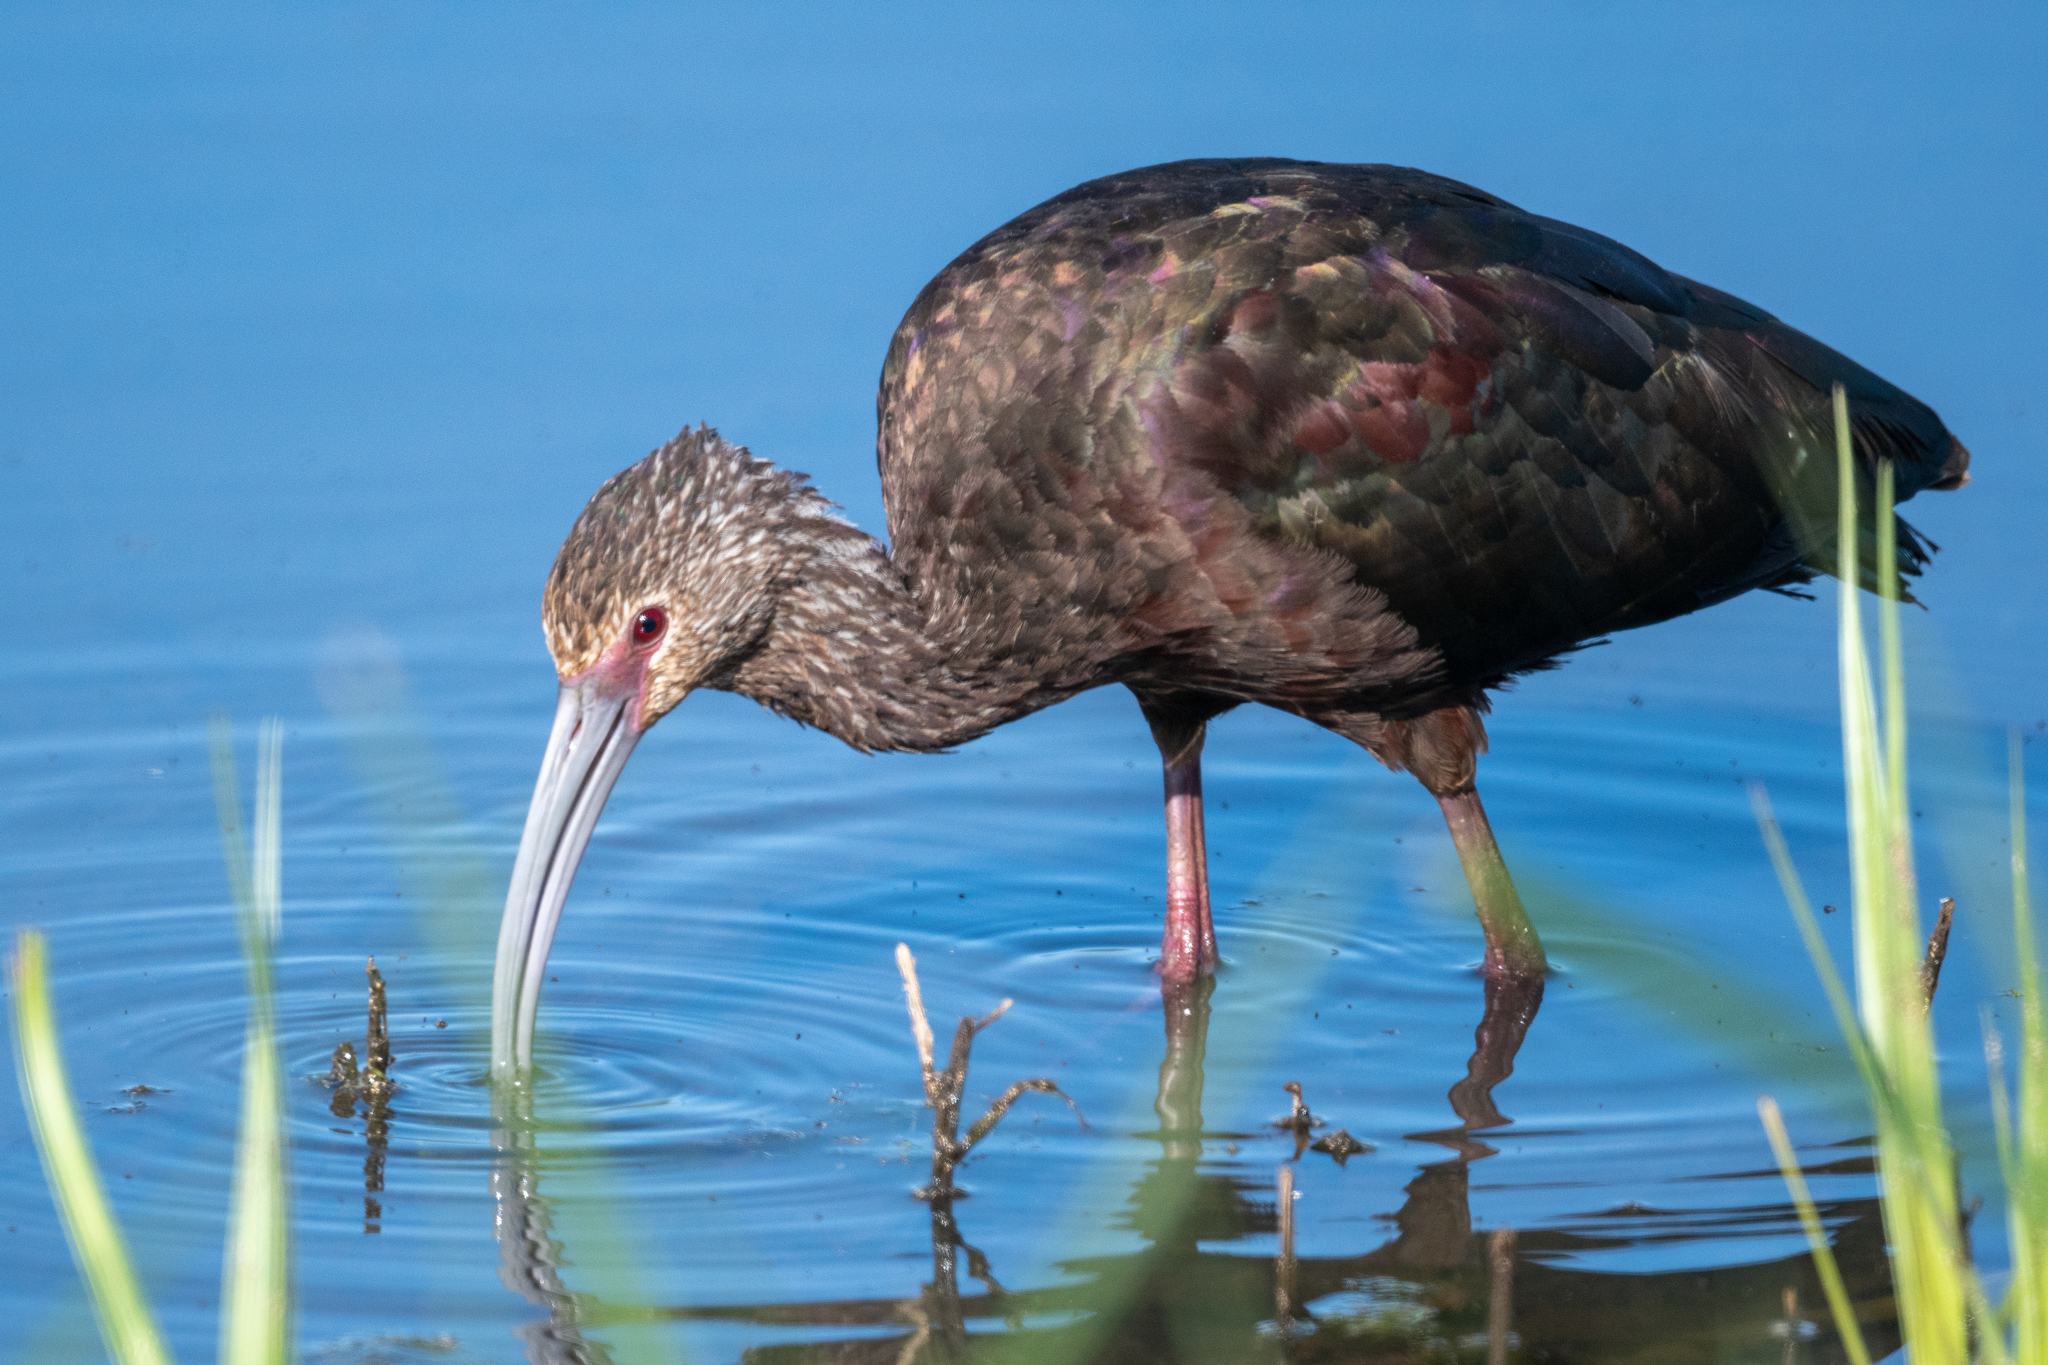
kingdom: Animalia
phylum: Chordata
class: Aves
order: Pelecaniformes
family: Threskiornithidae
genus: Plegadis
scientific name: Plegadis chihi
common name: White-faced ibis
